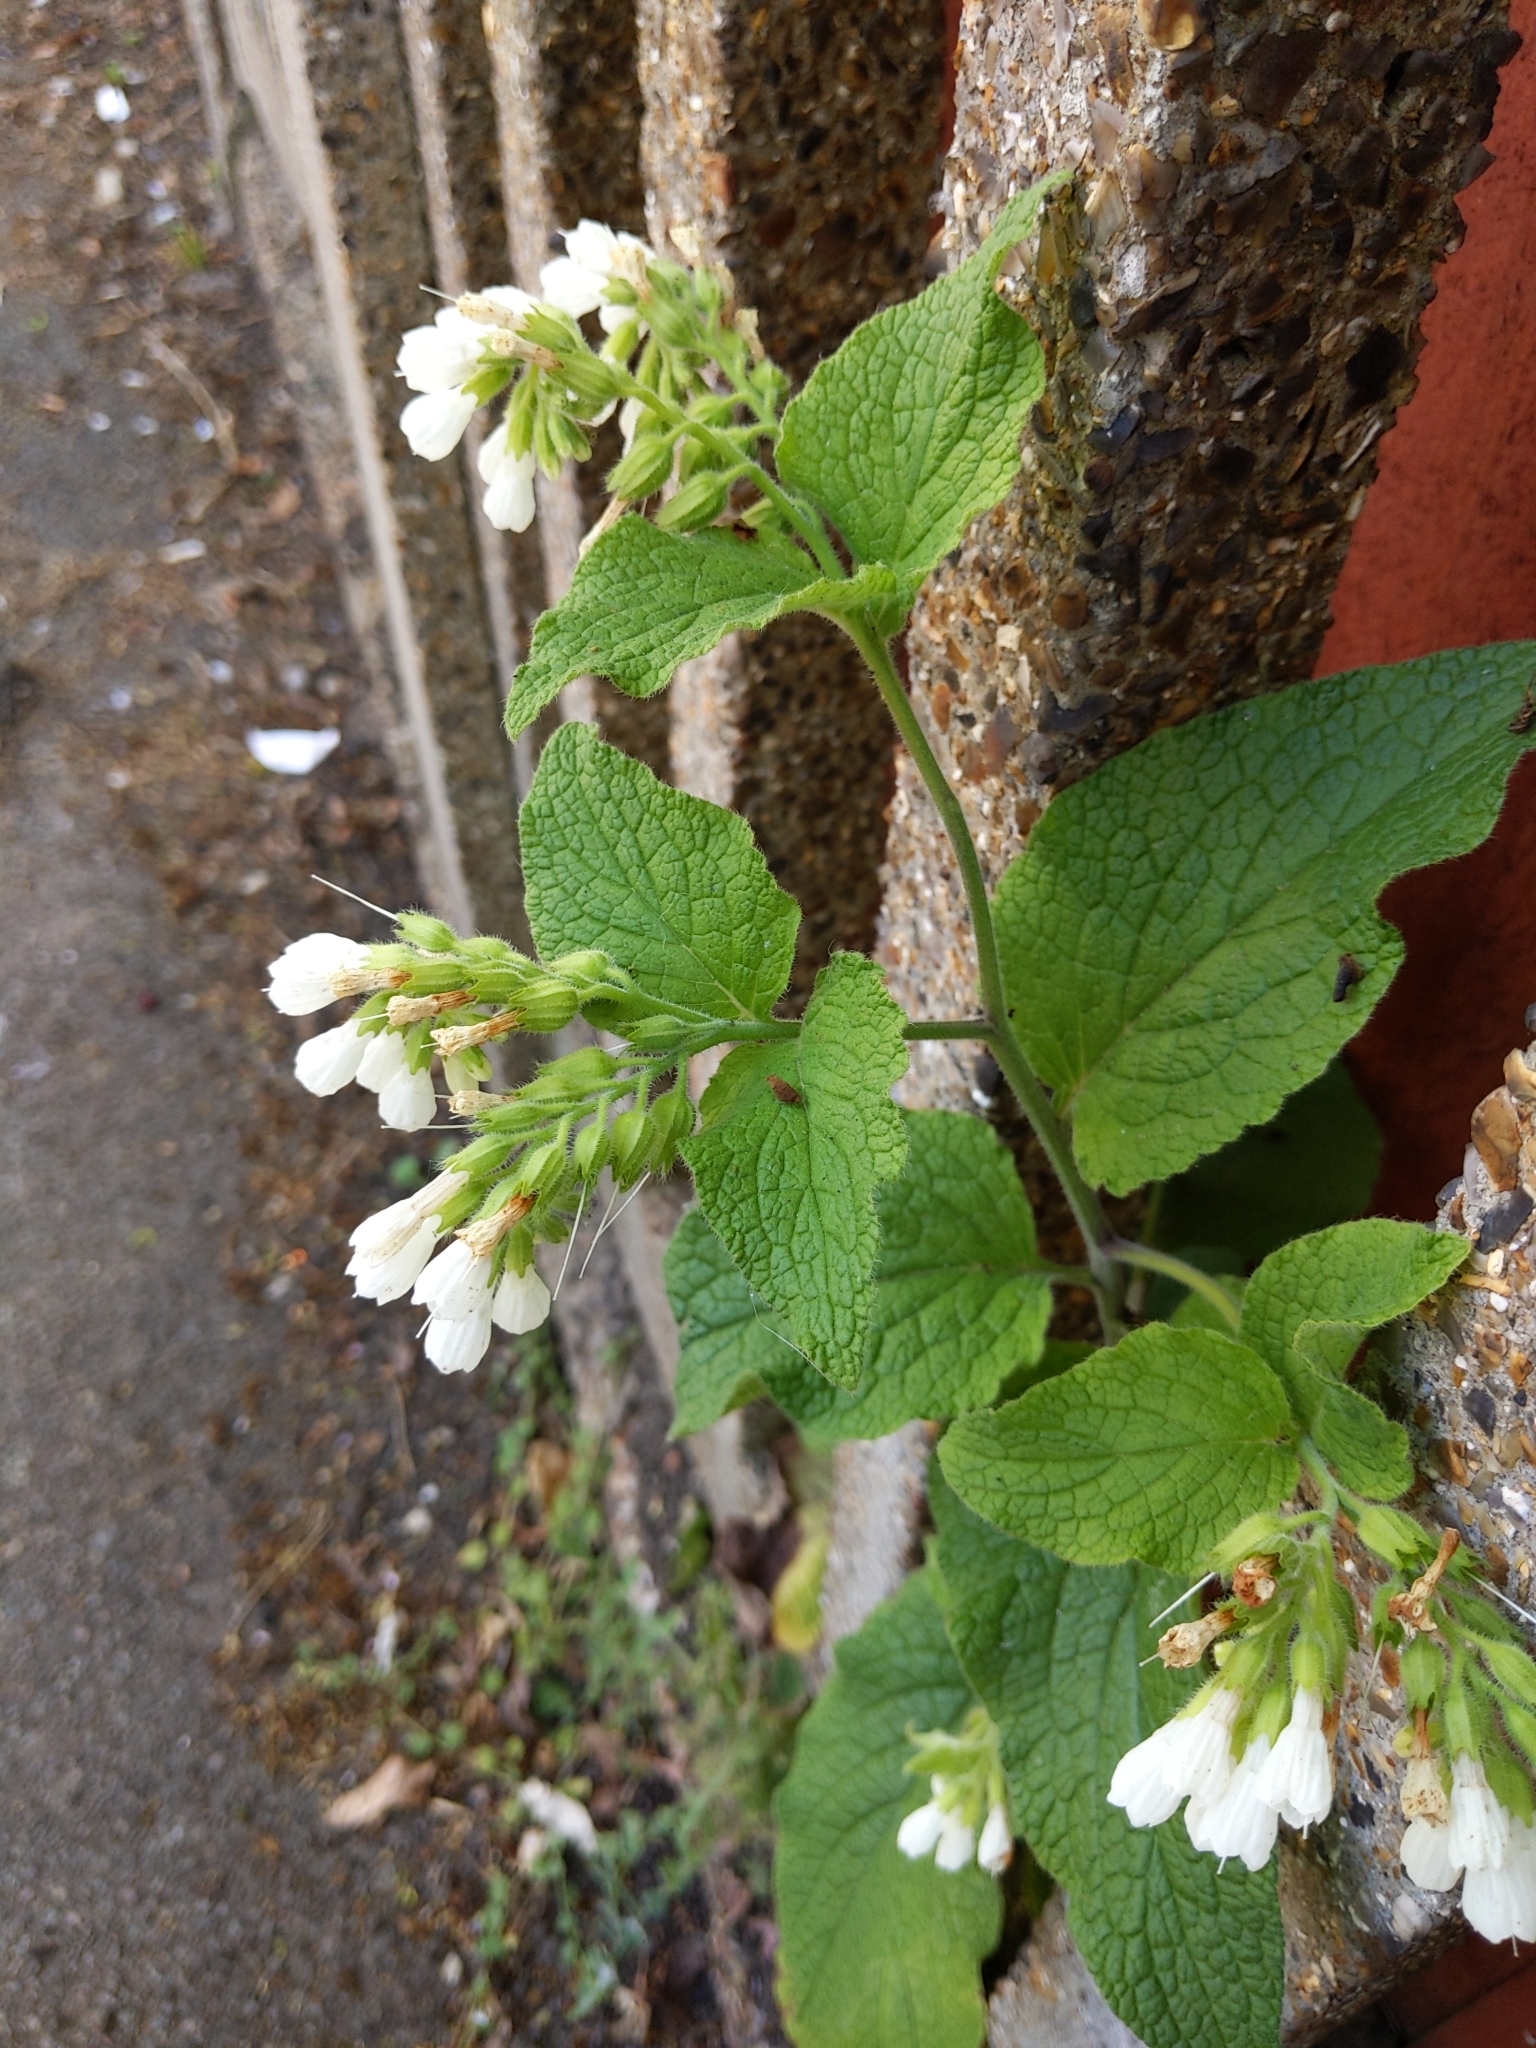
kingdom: Plantae
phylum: Tracheophyta
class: Magnoliopsida
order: Boraginales
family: Boraginaceae
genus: Symphytum
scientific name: Symphytum orientale
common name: White comfrey
